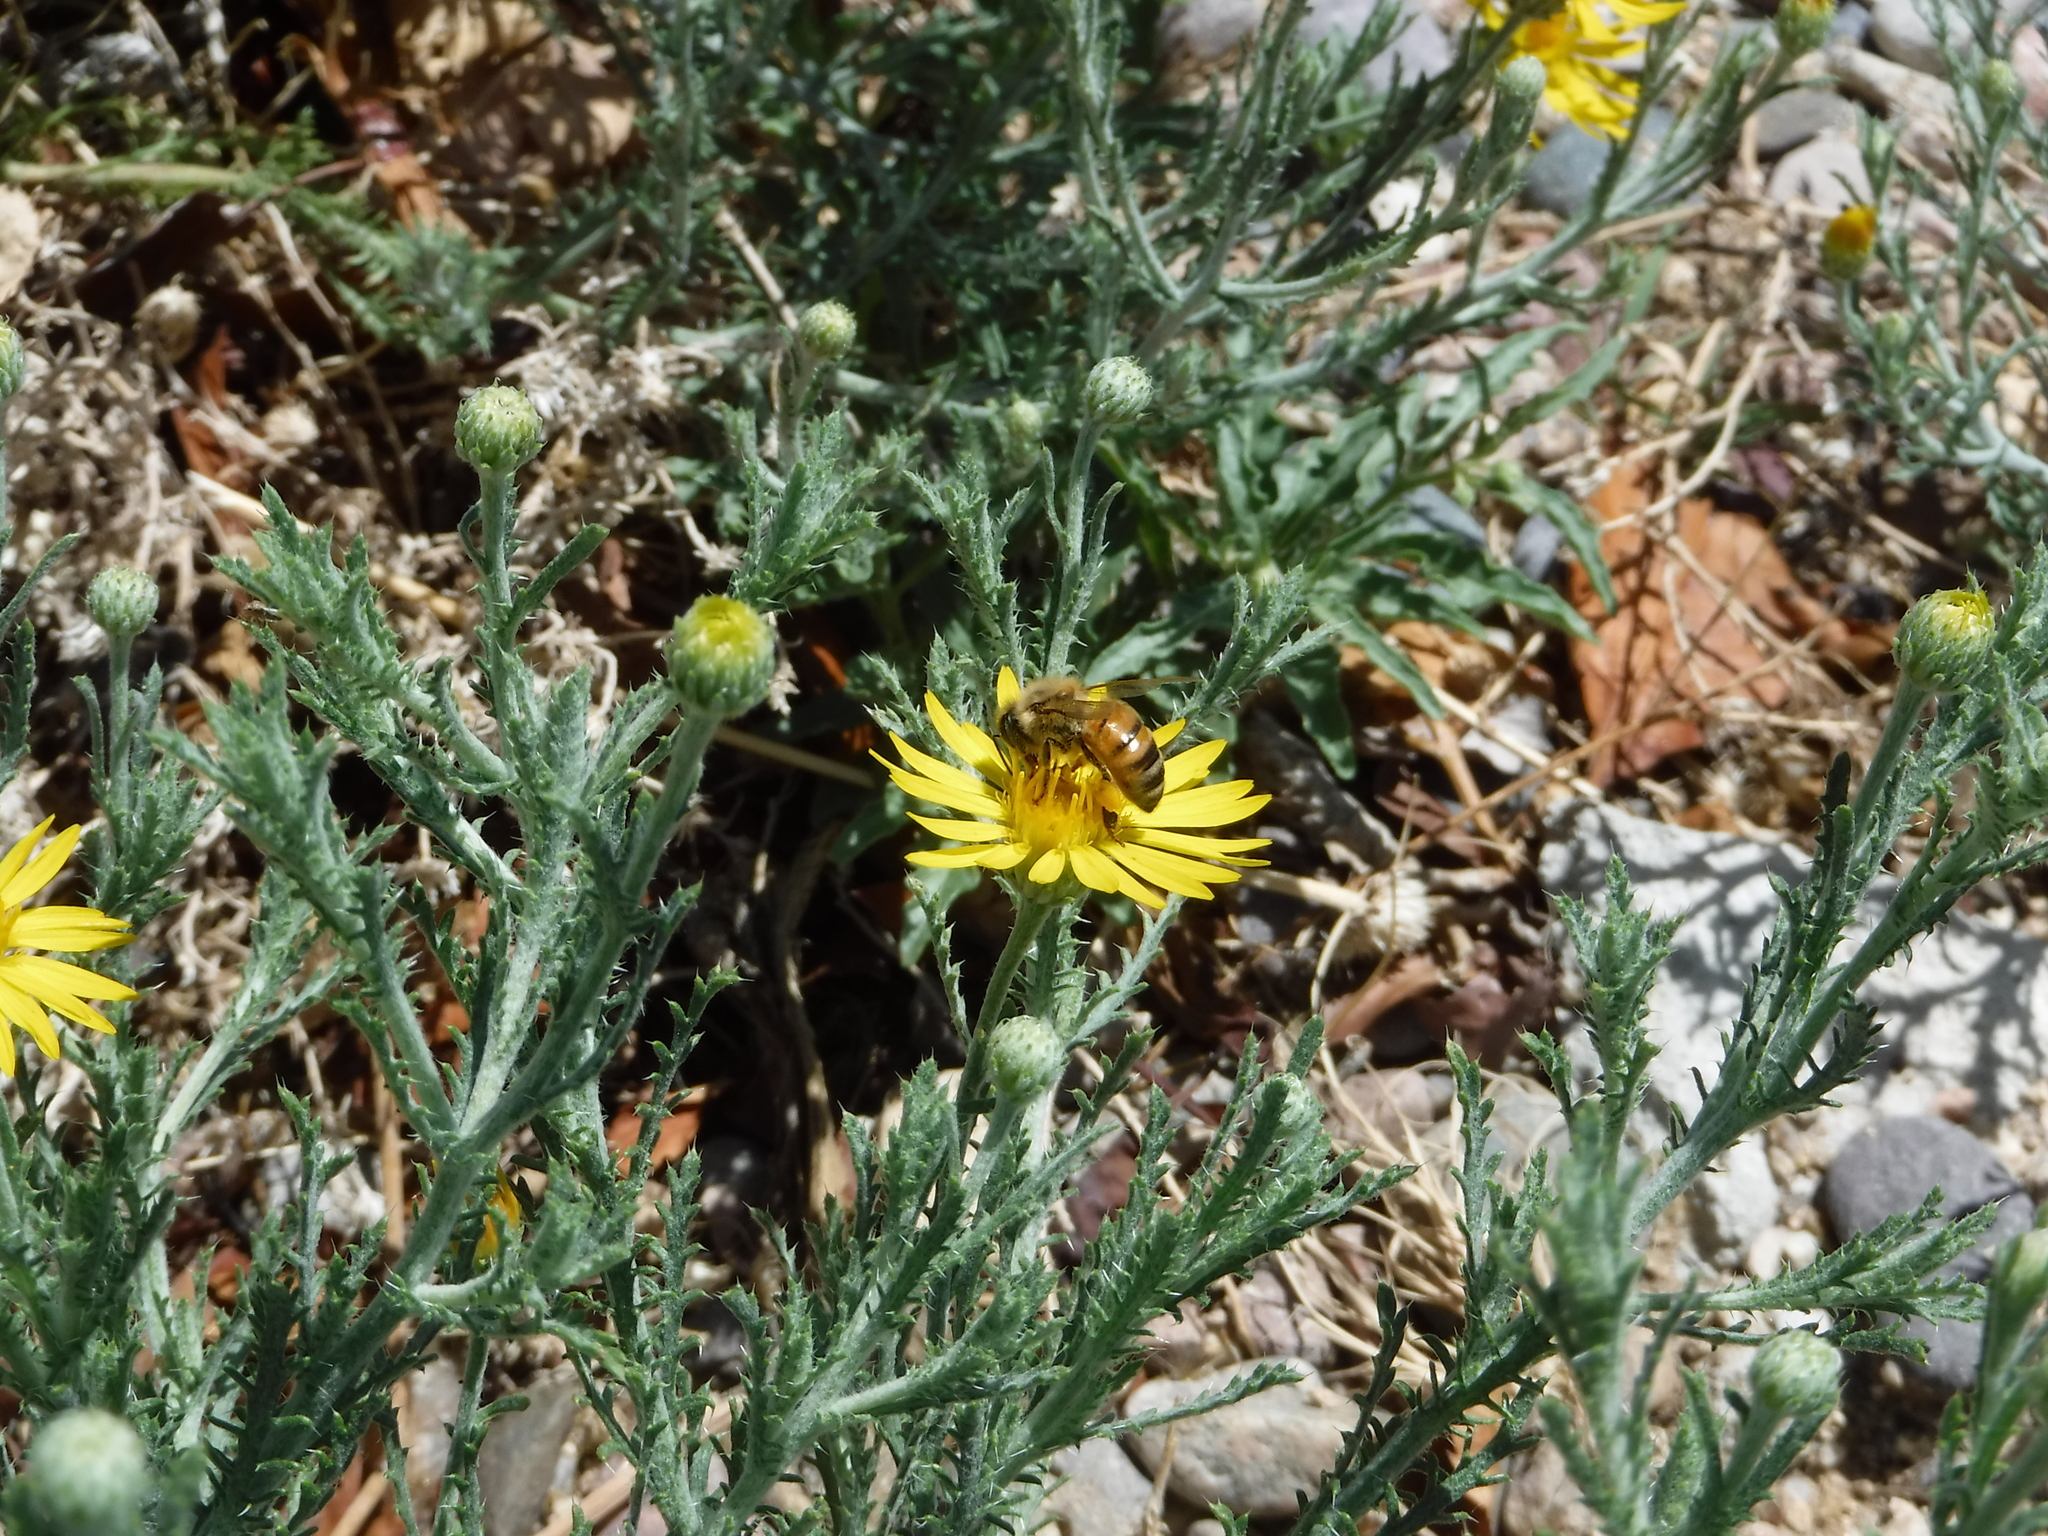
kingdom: Animalia
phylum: Arthropoda
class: Insecta
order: Hymenoptera
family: Apidae
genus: Apis
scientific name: Apis mellifera
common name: Honey bee
